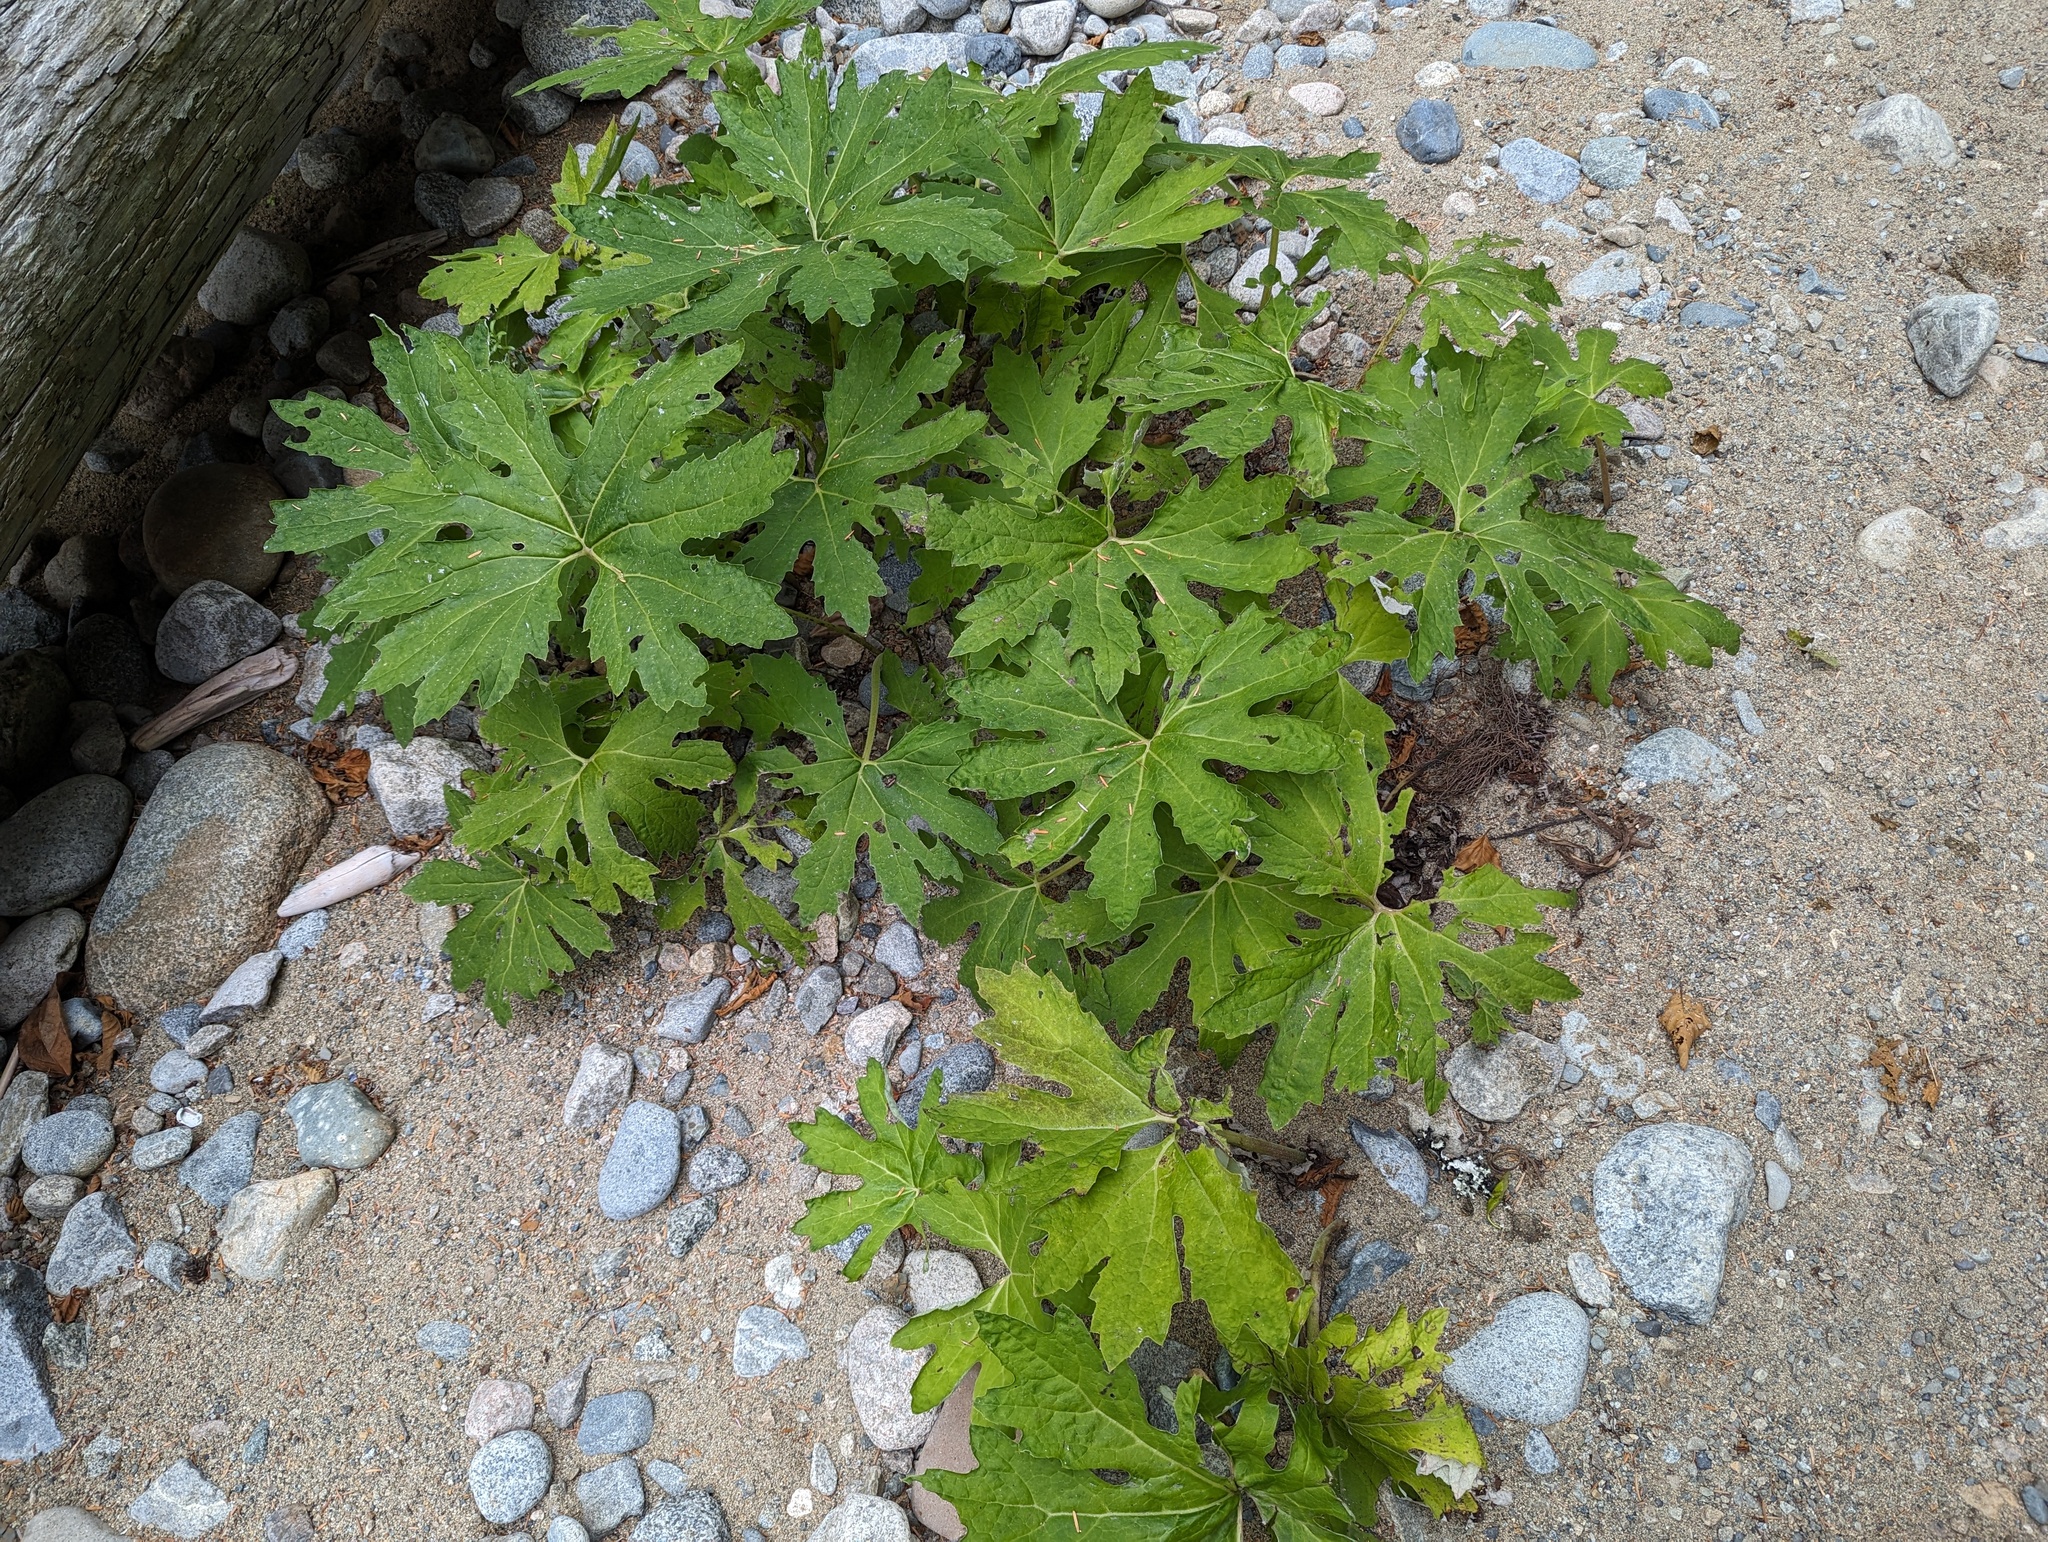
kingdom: Plantae
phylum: Tracheophyta
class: Magnoliopsida
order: Asterales
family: Asteraceae
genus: Petasites
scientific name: Petasites frigidus
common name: Arctic butterbur
